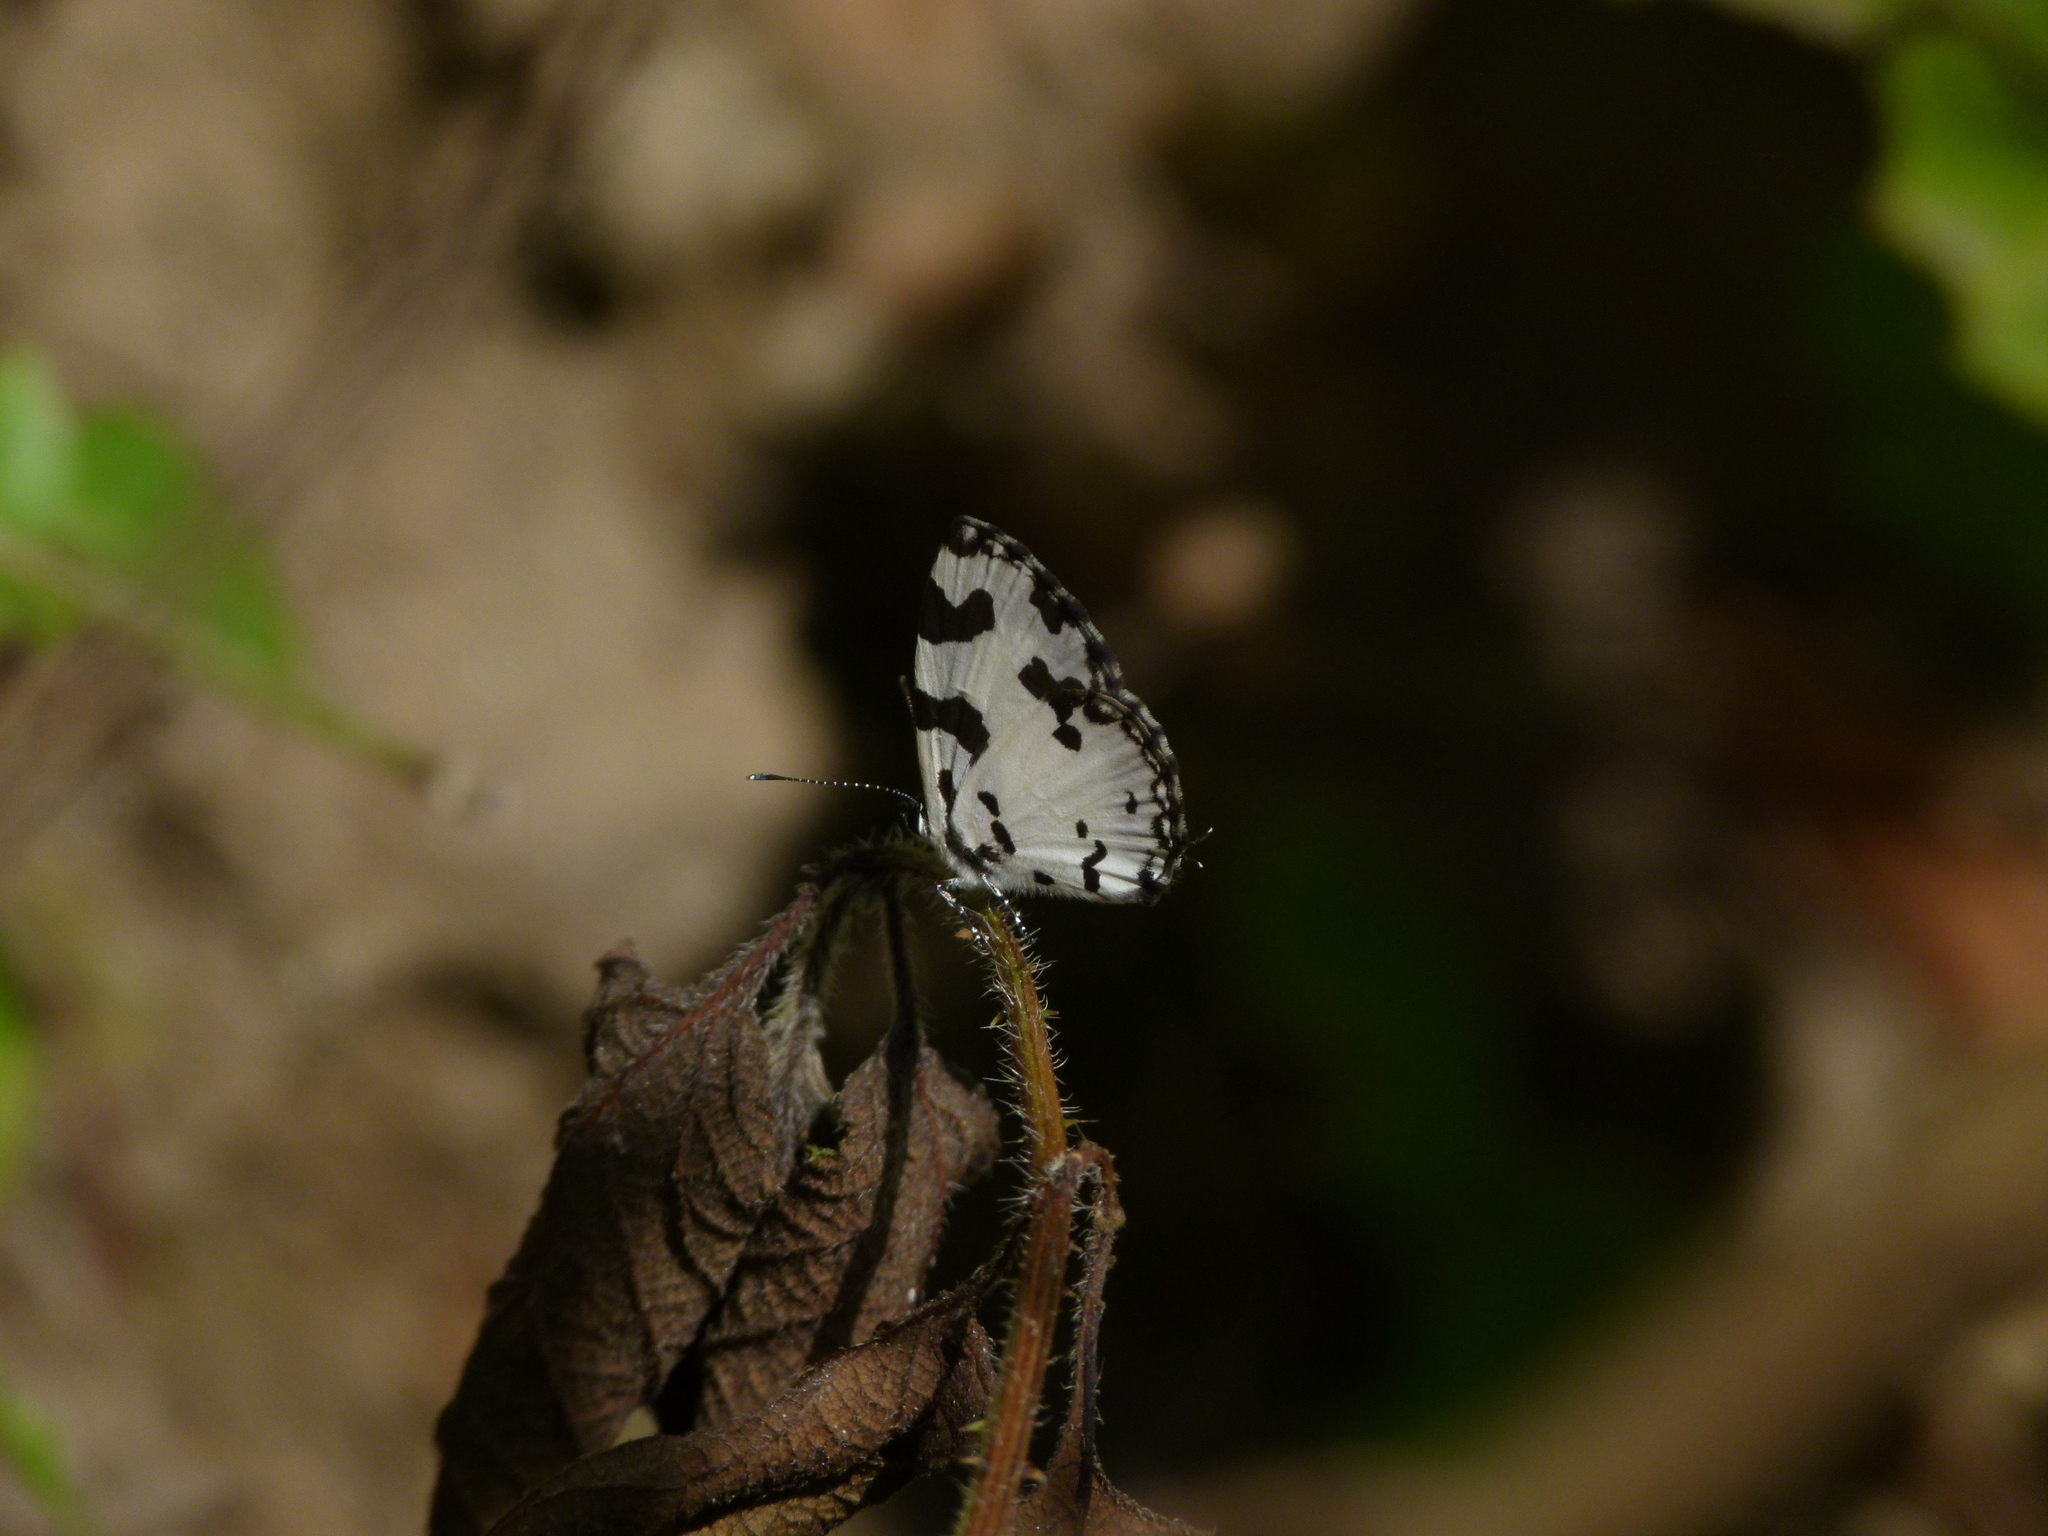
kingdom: Animalia
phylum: Arthropoda
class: Insecta
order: Lepidoptera
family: Lycaenidae
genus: Caleta
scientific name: Caleta decidia
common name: Angled pierrot
